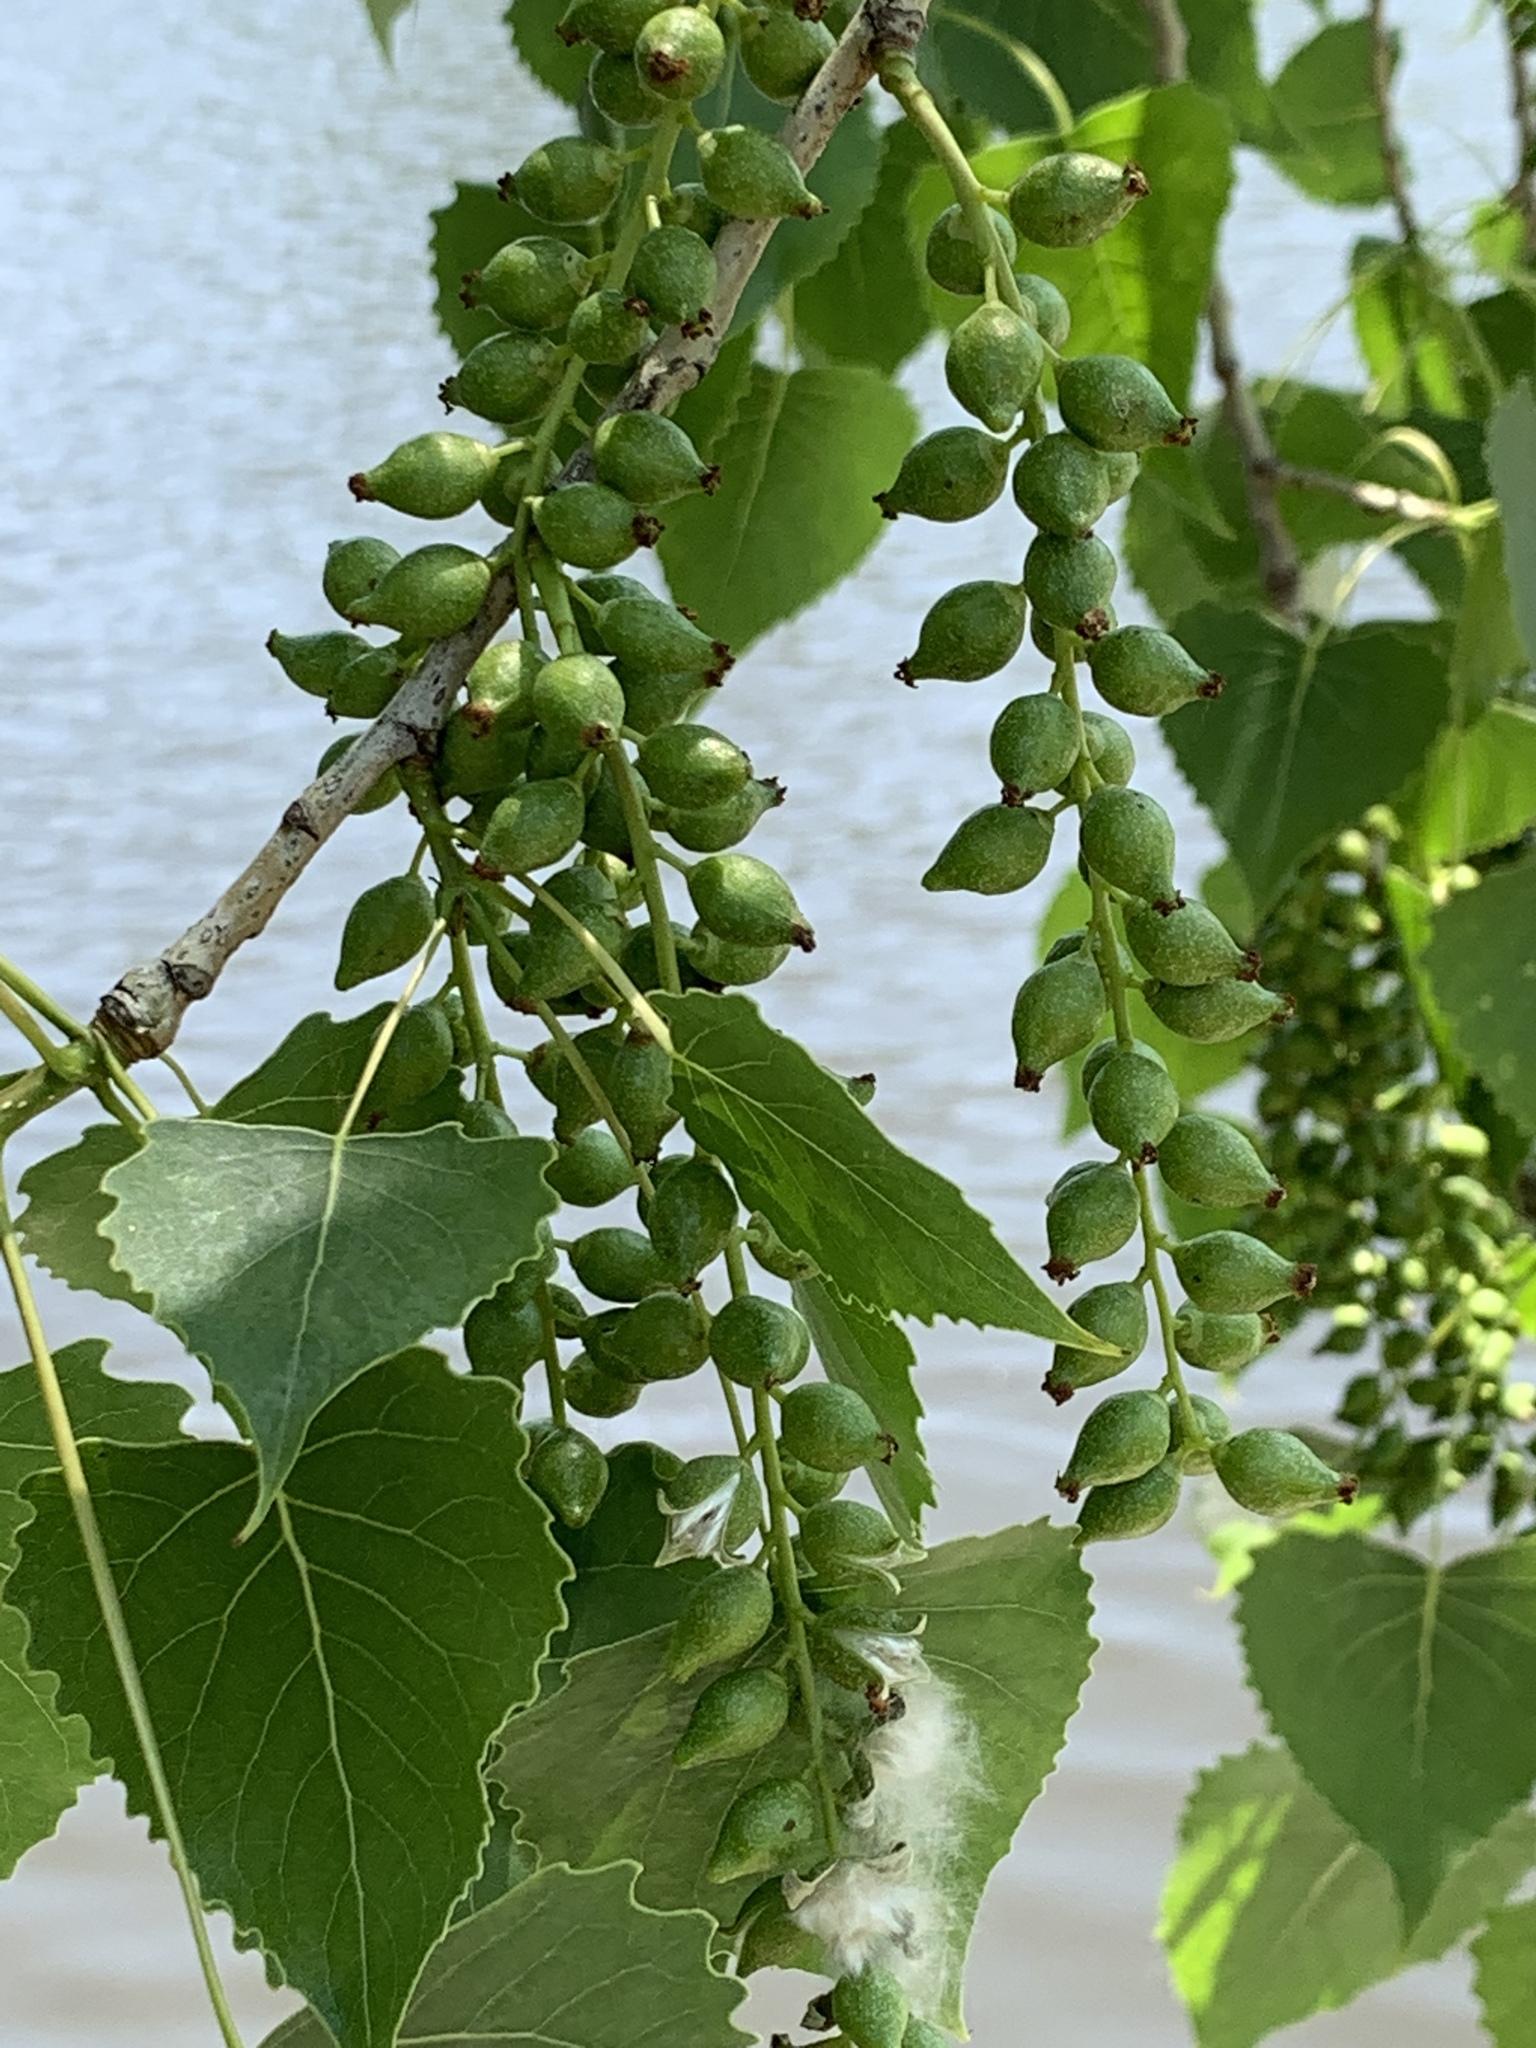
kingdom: Plantae
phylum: Tracheophyta
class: Magnoliopsida
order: Malpighiales
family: Salicaceae
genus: Populus
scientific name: Populus deltoides
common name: Eastern cottonwood
